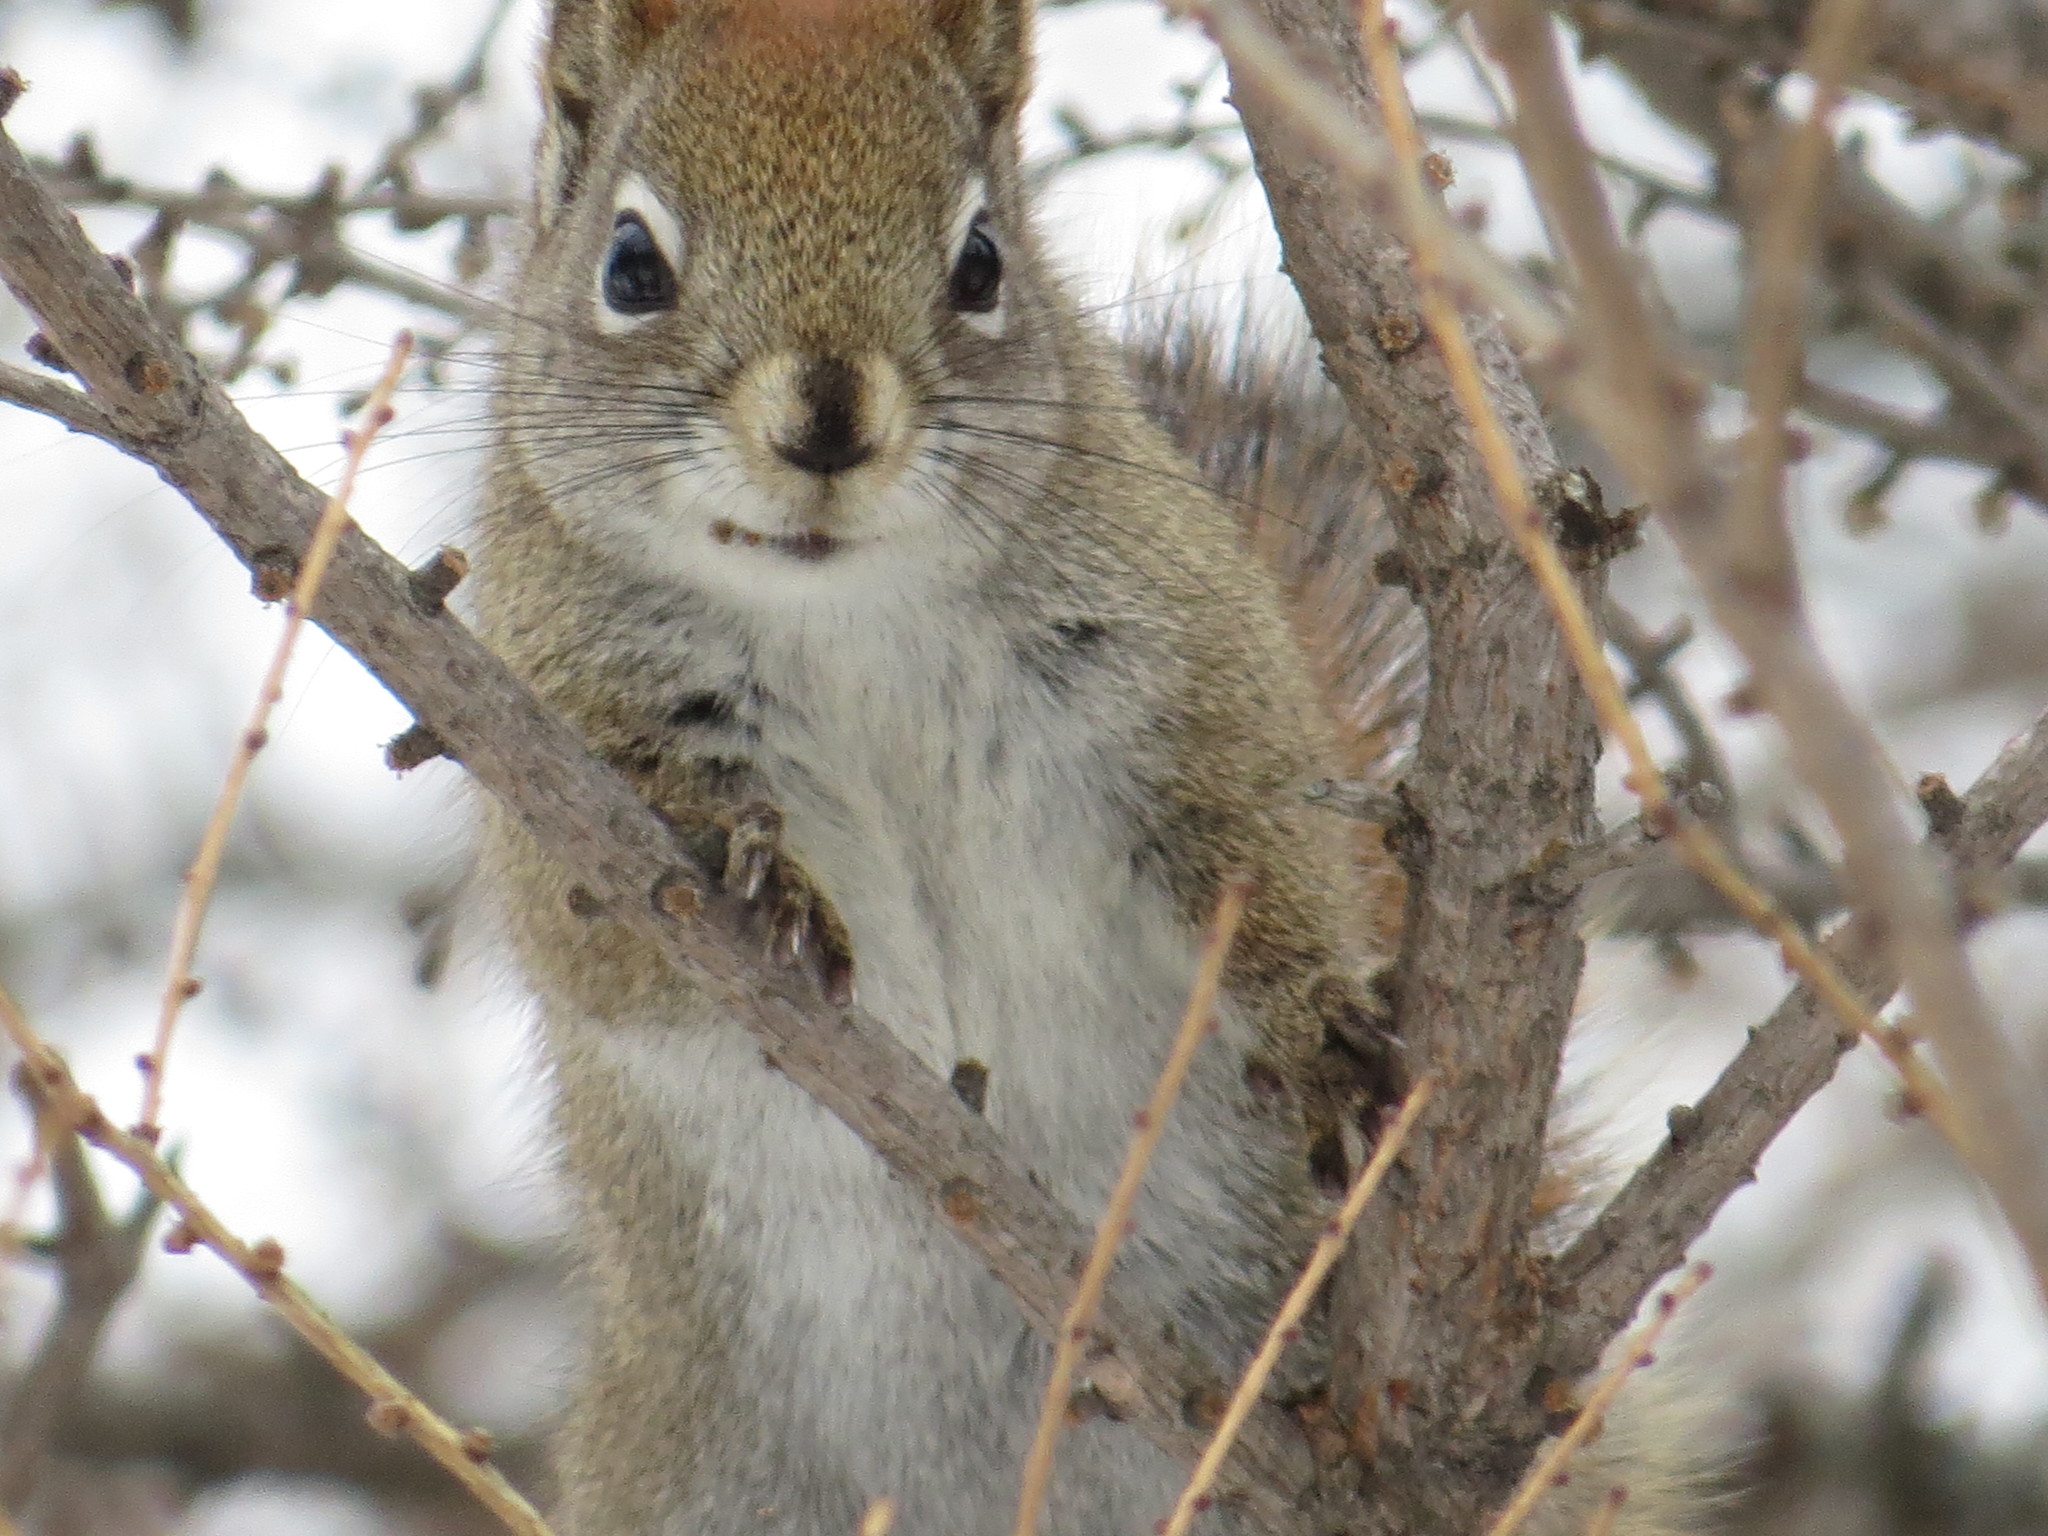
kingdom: Animalia
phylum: Chordata
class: Mammalia
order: Rodentia
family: Sciuridae
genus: Tamiasciurus
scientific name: Tamiasciurus hudsonicus
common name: Red squirrel
